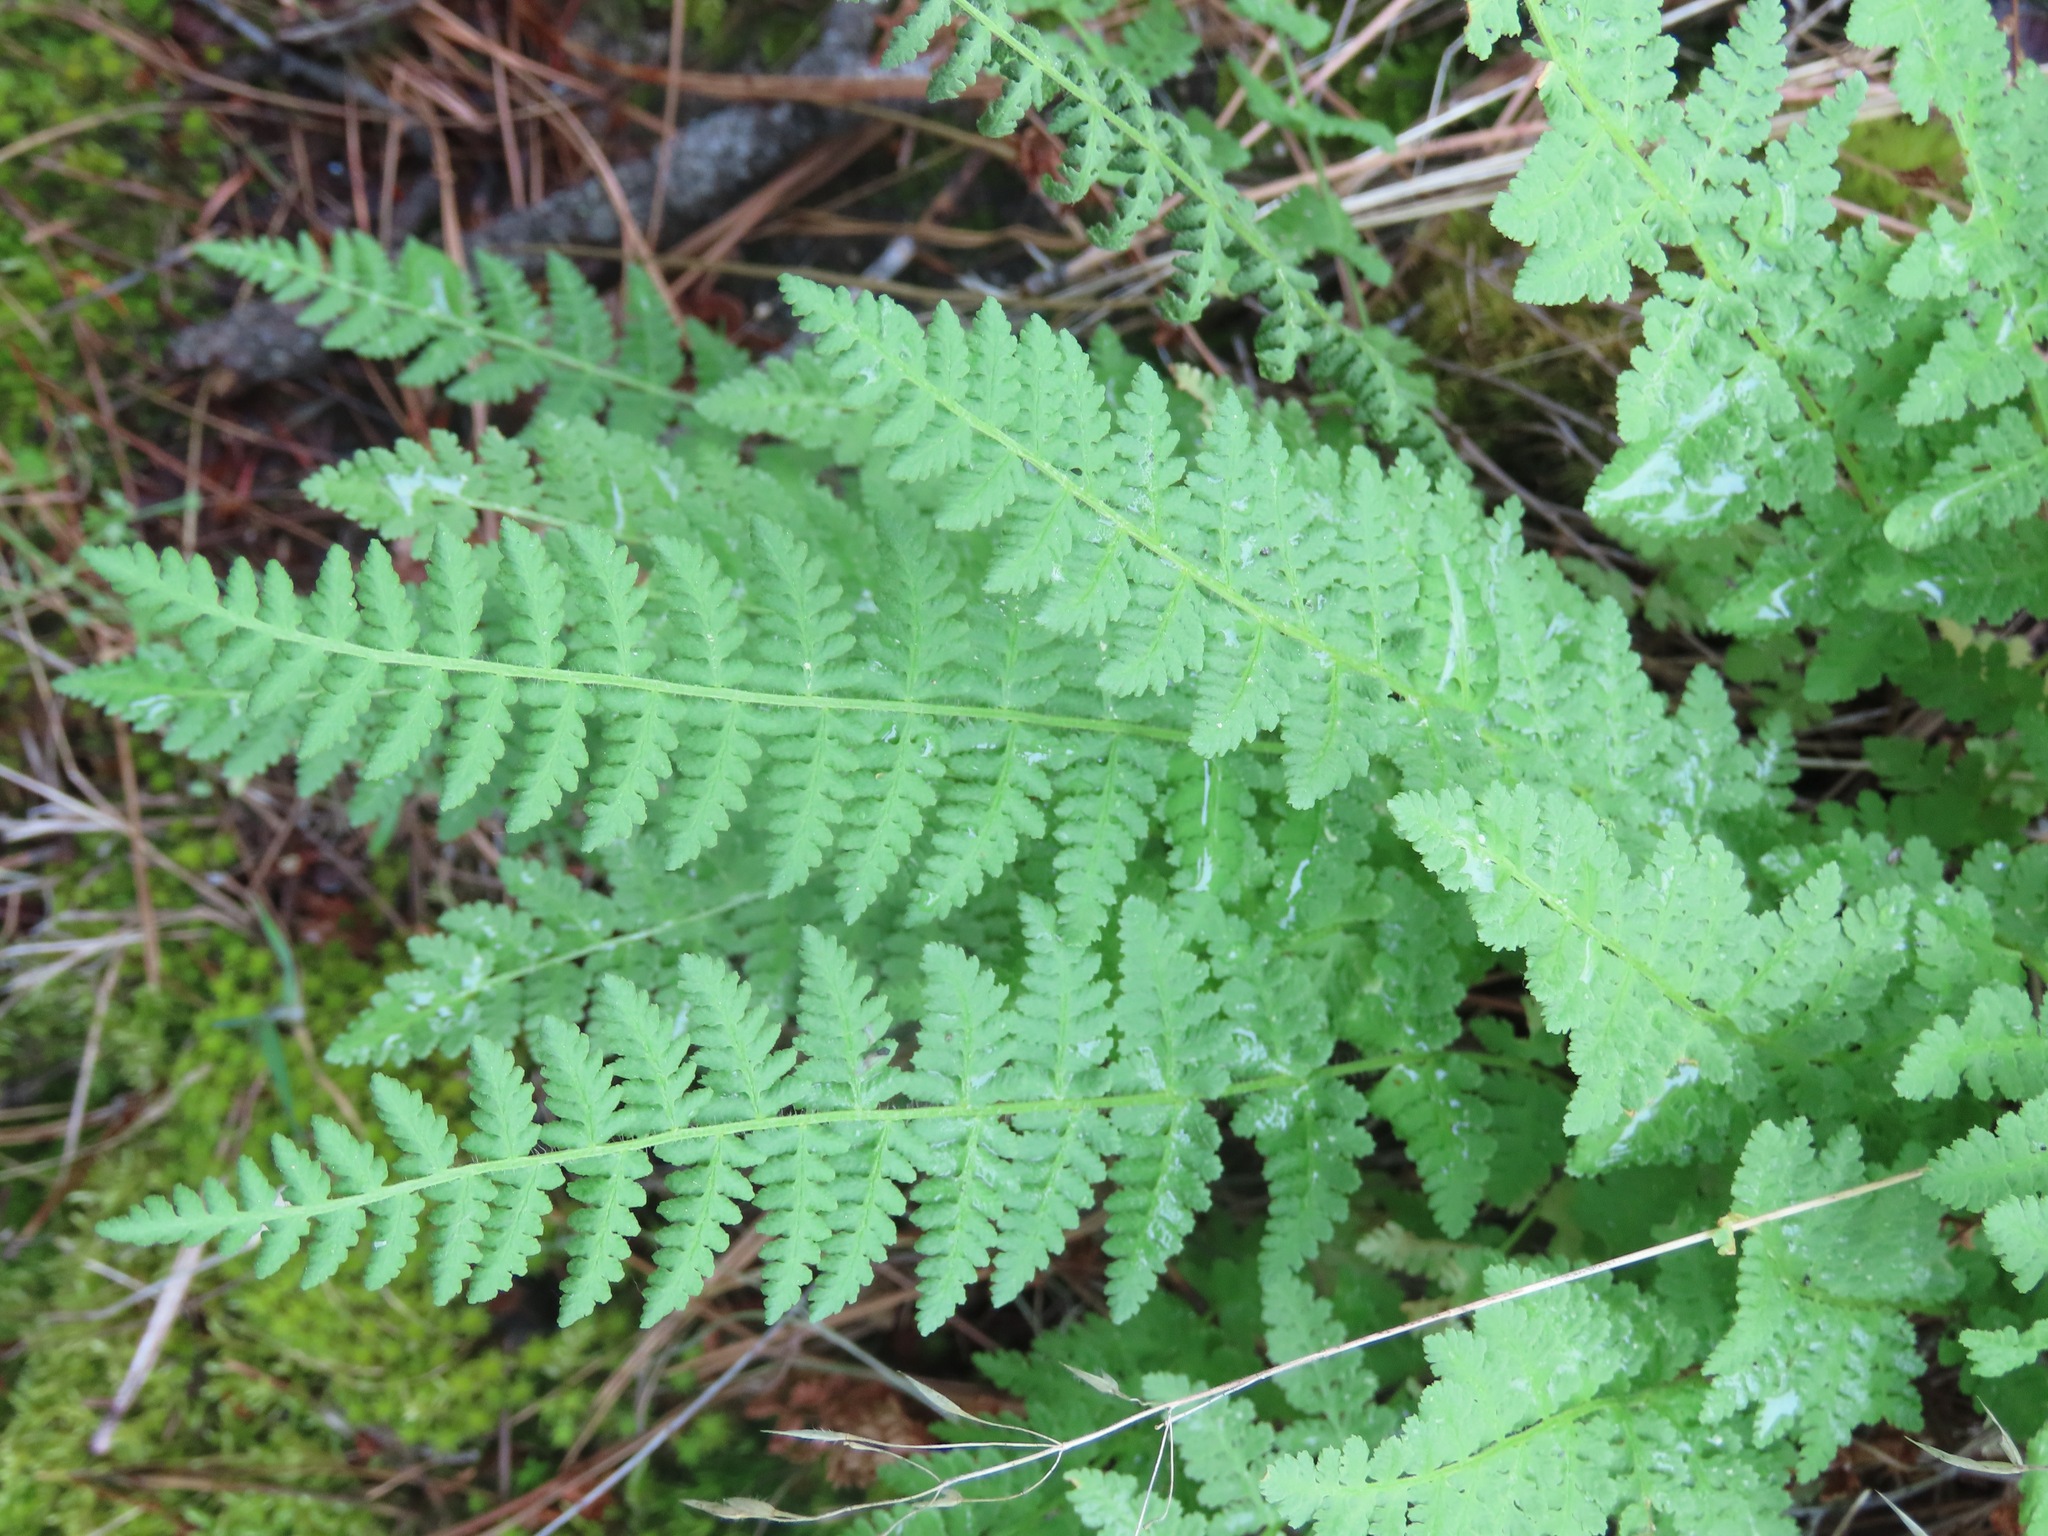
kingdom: Plantae
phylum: Tracheophyta
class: Polypodiopsida
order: Polypodiales
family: Woodsiaceae
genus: Physematium
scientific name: Physematium scopulinum
